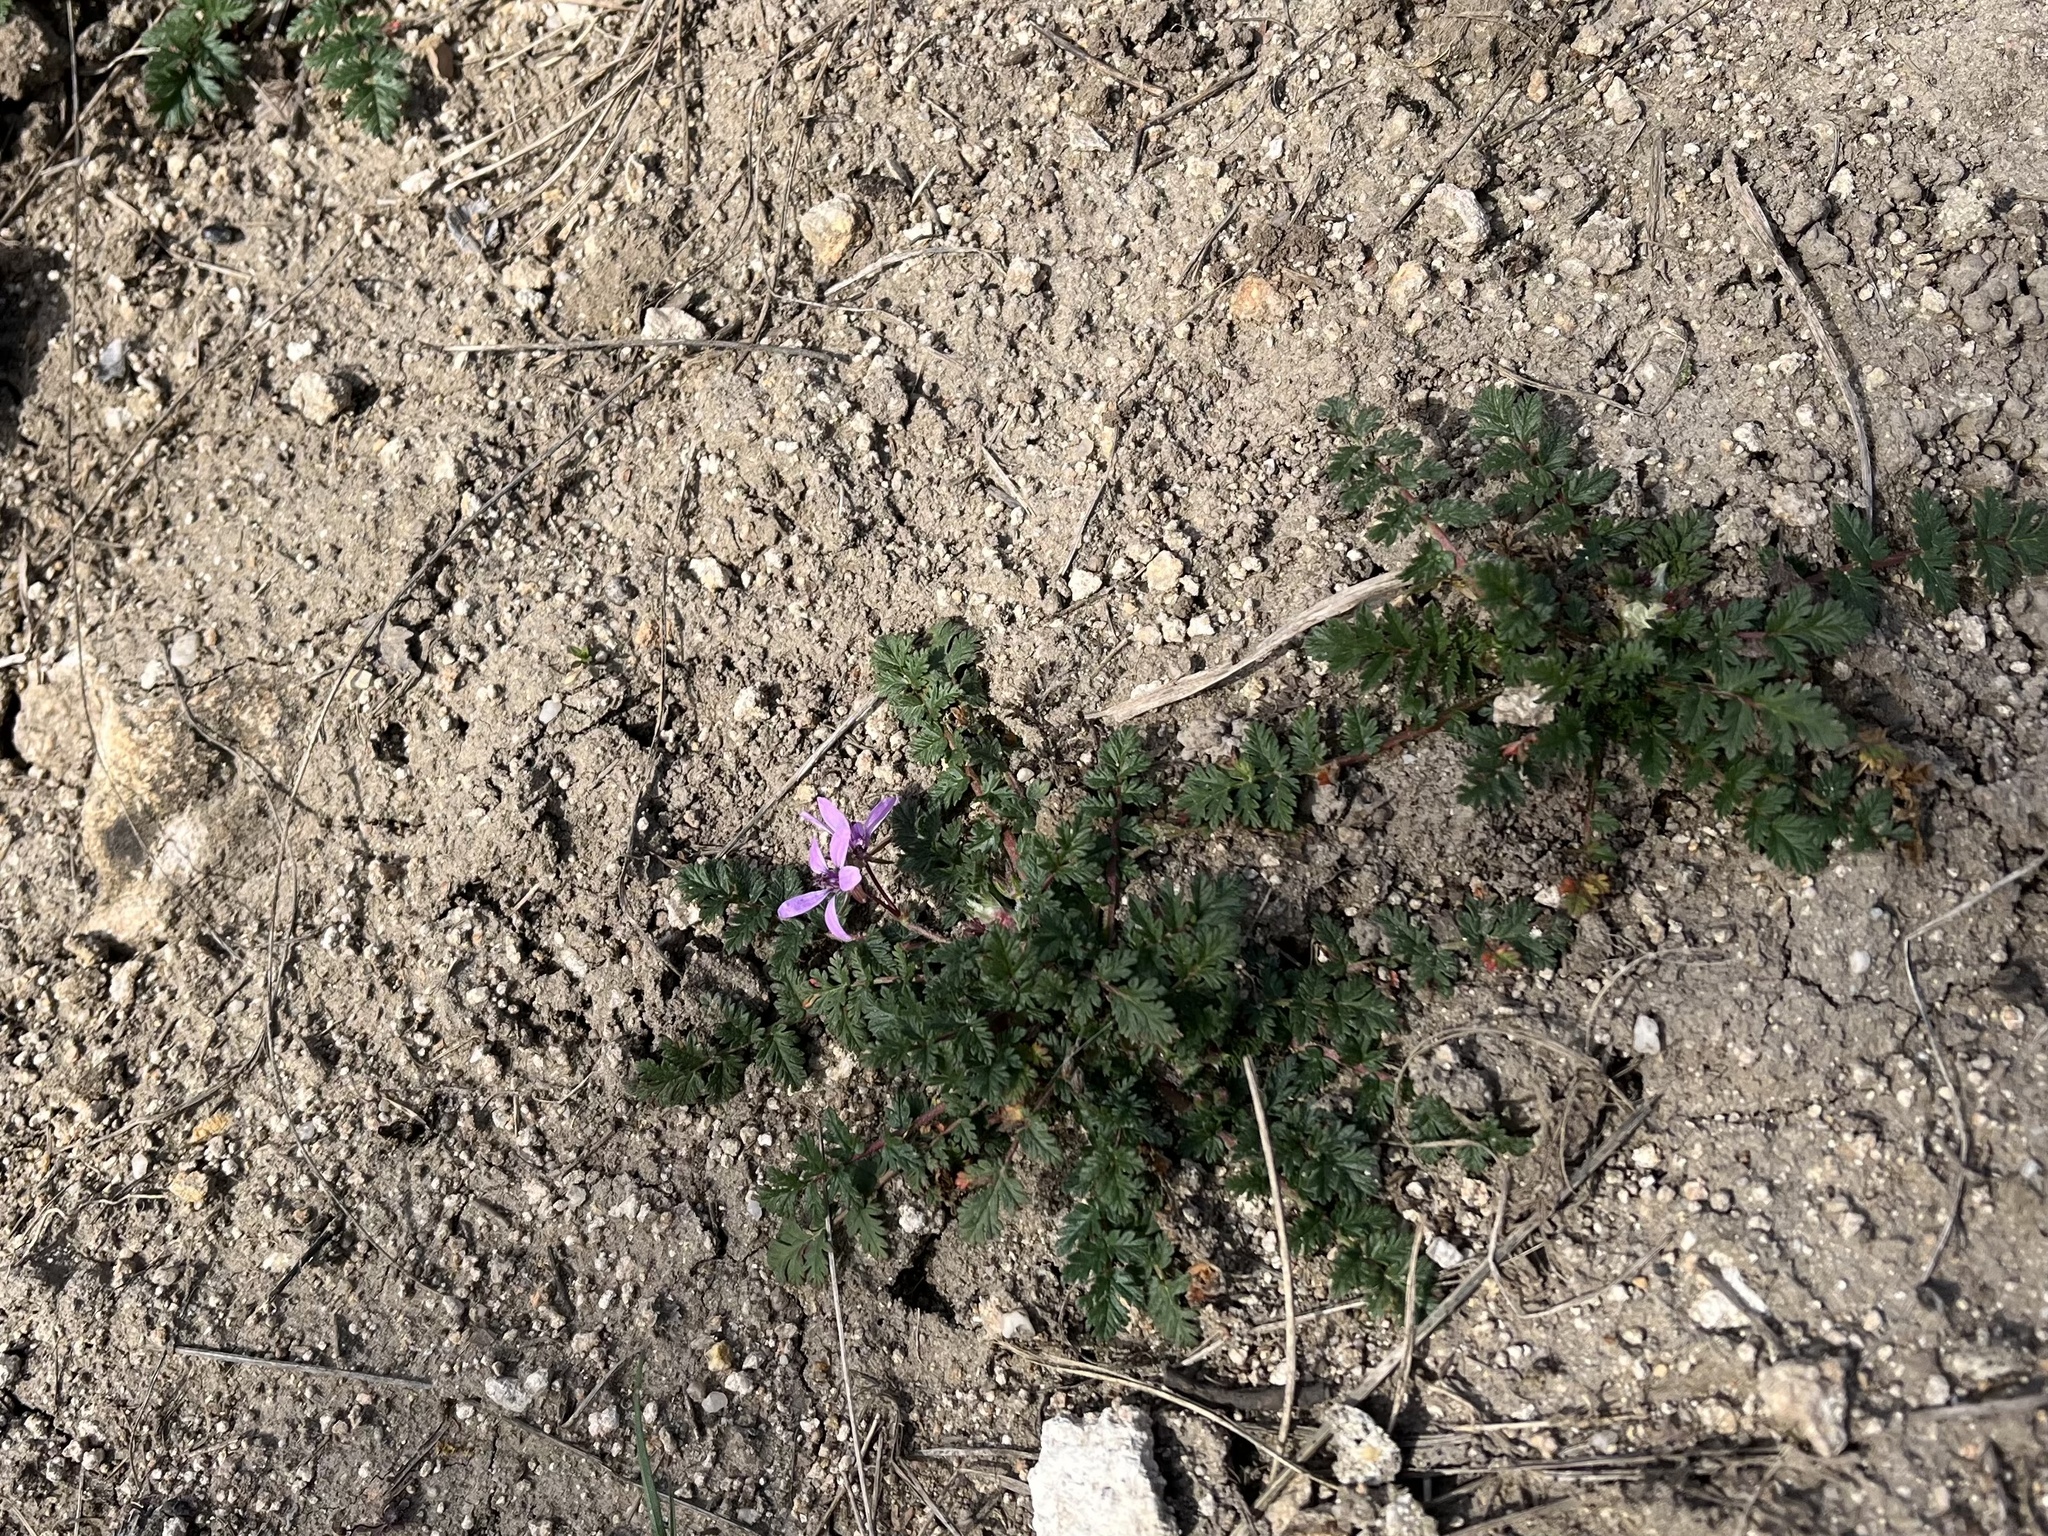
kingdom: Plantae
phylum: Tracheophyta
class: Magnoliopsida
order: Geraniales
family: Geraniaceae
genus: Erodium
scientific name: Erodium cicutarium
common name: Common stork's-bill
